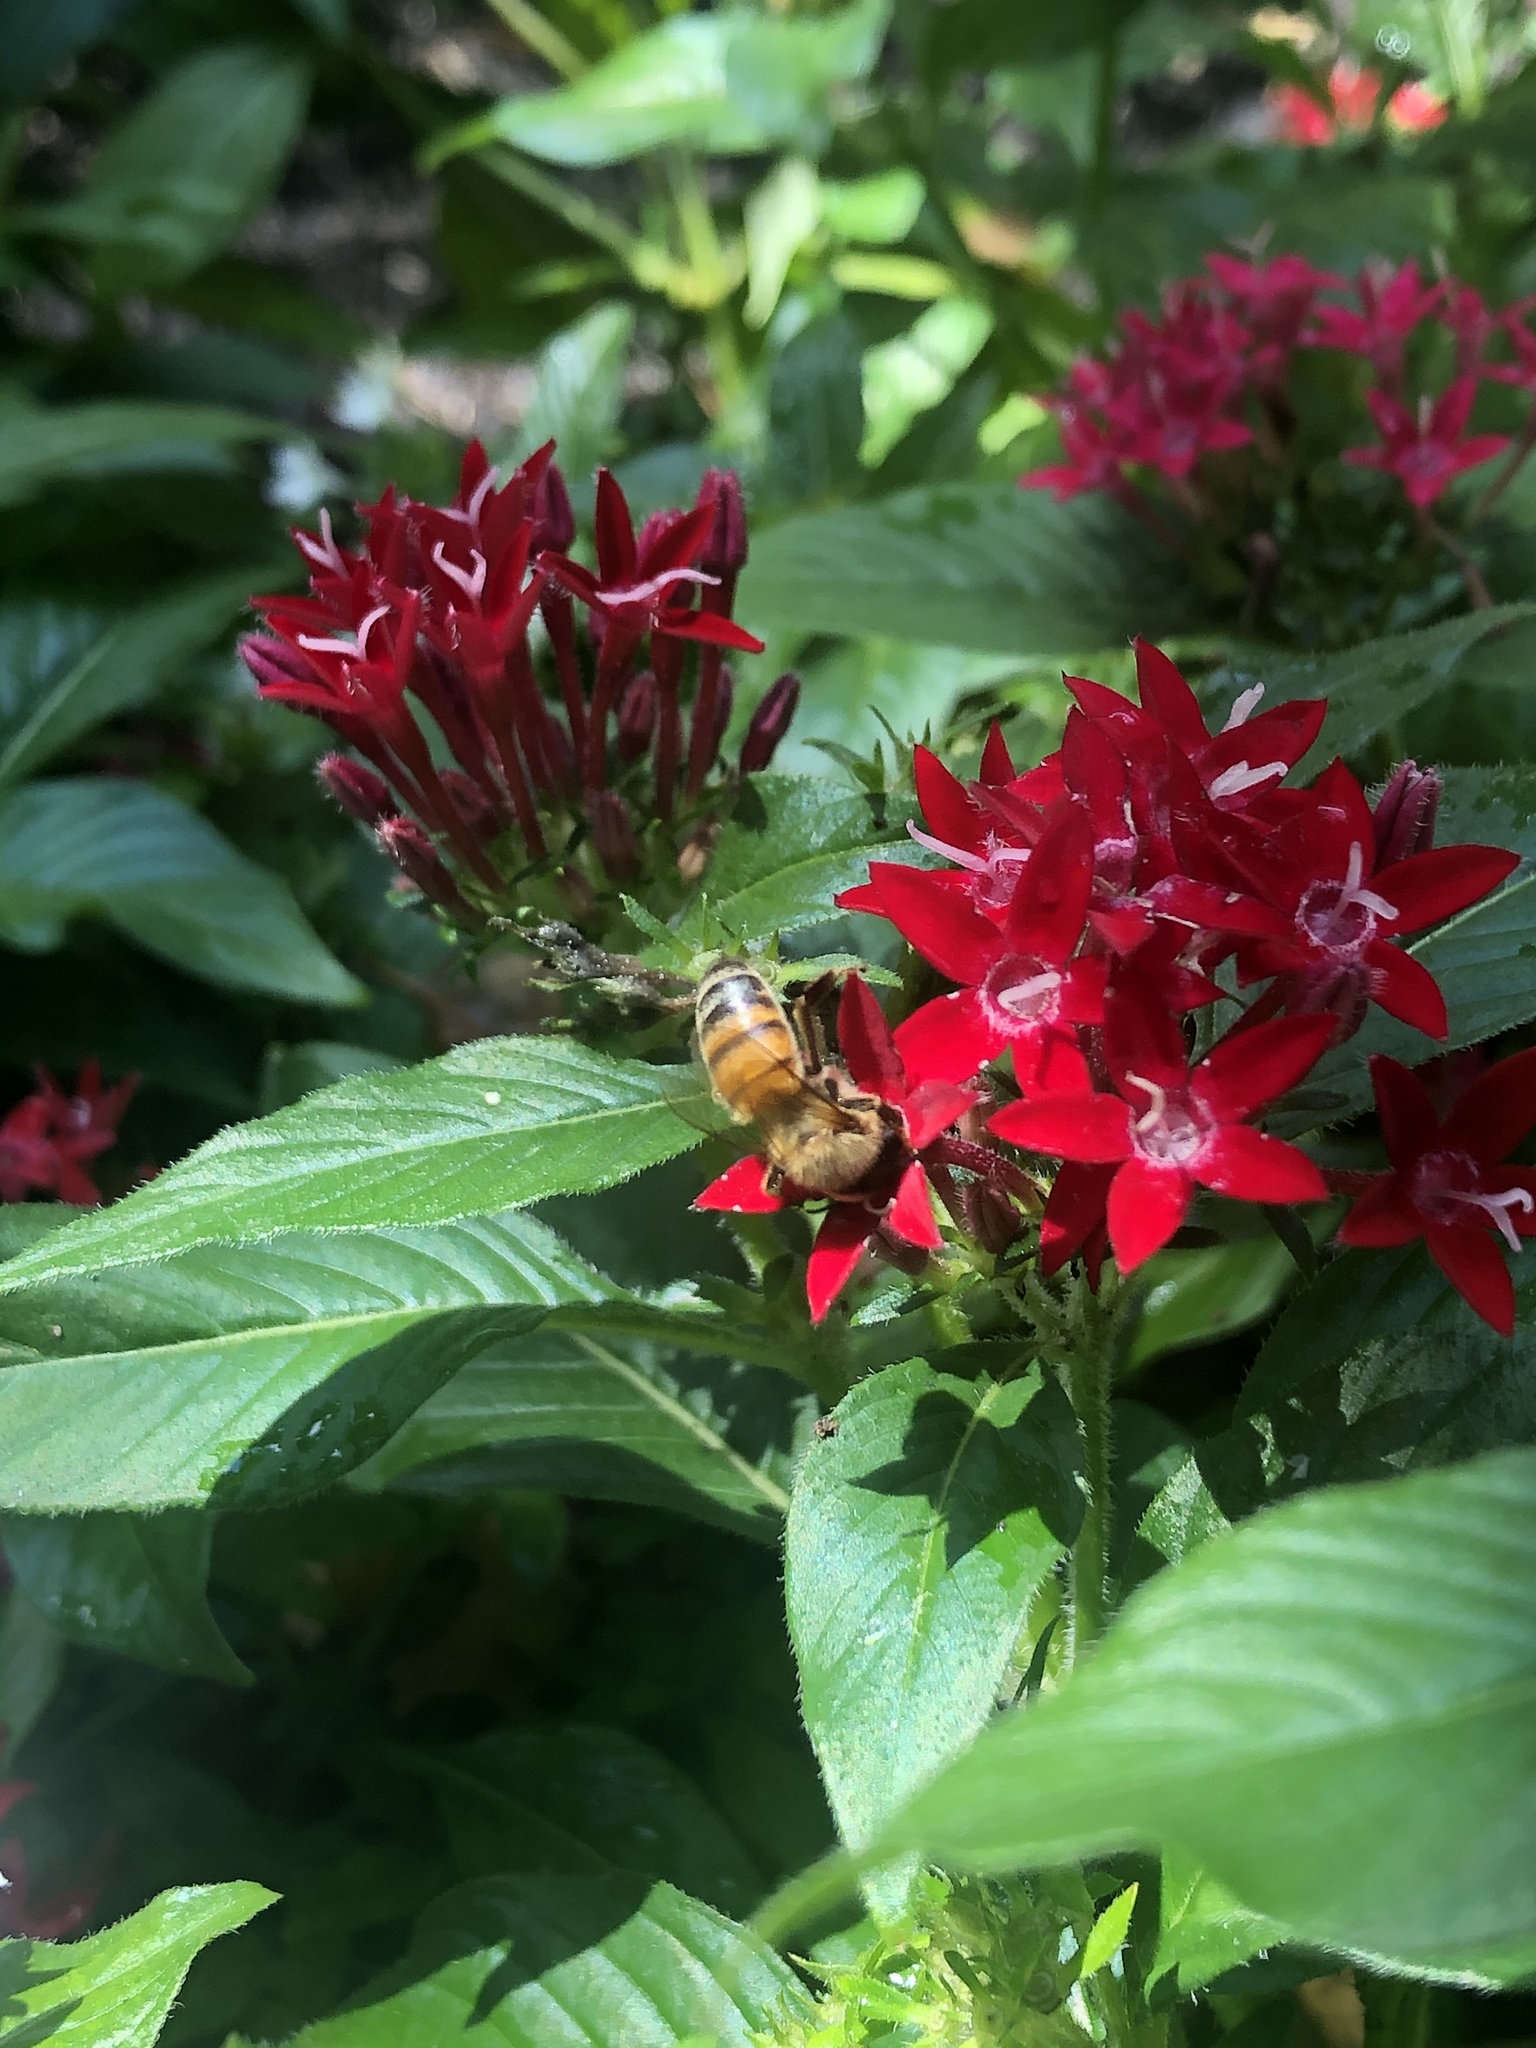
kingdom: Animalia
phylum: Arthropoda
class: Insecta
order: Hymenoptera
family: Apidae
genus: Apis
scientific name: Apis mellifera
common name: Honey bee
